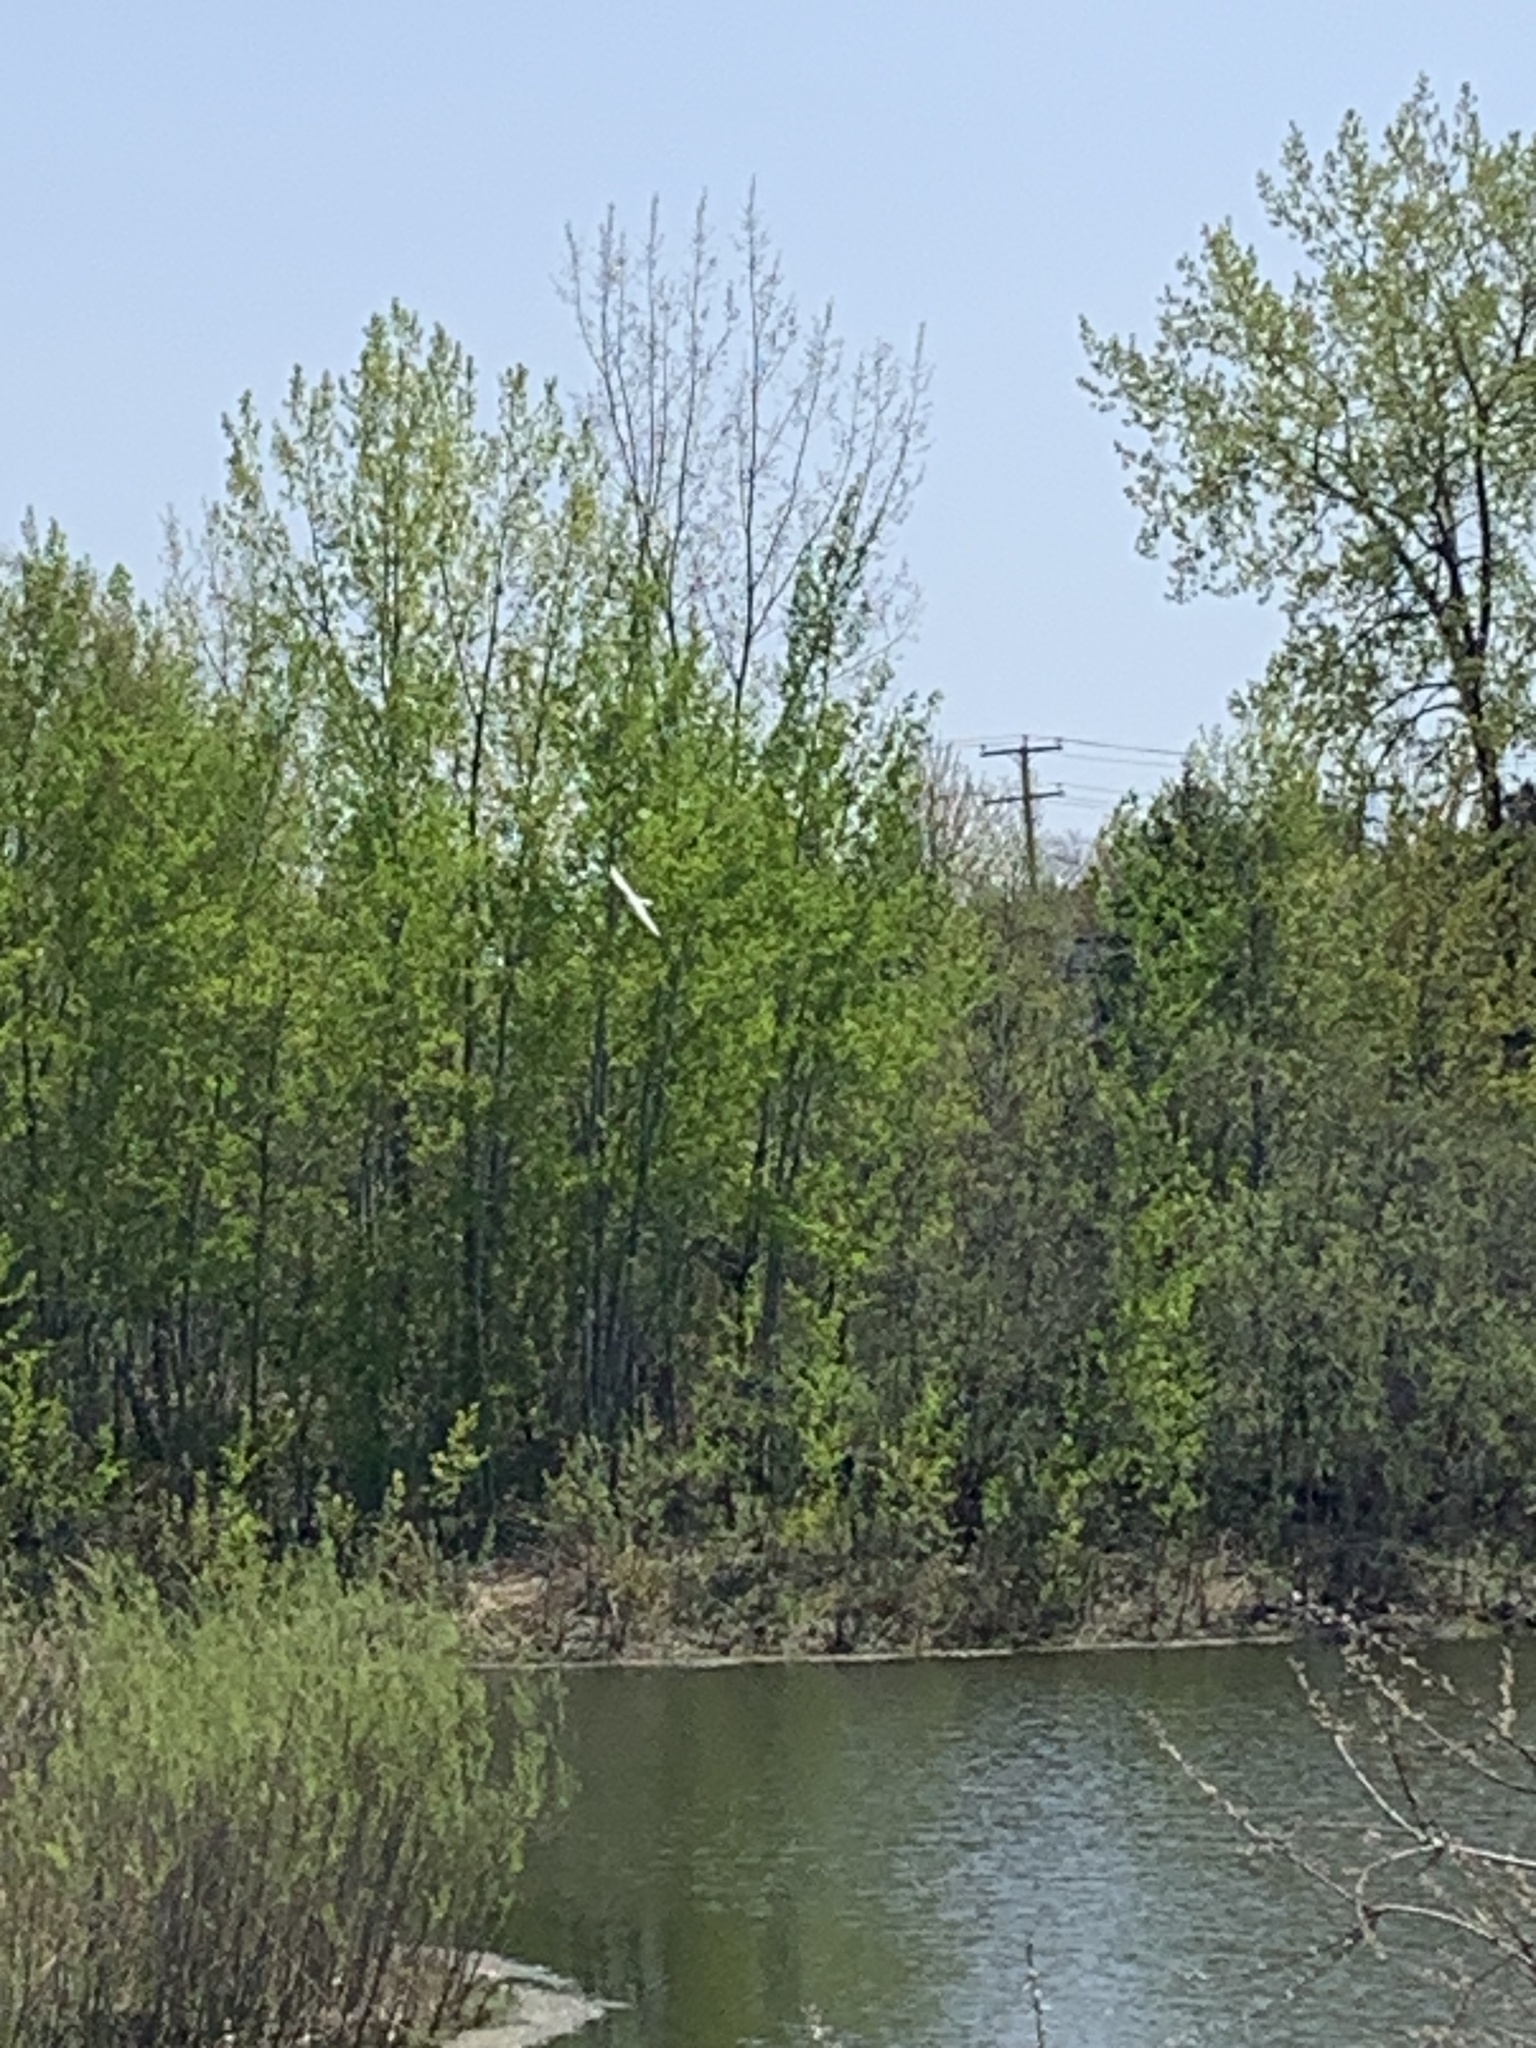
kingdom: Animalia
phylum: Chordata
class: Aves
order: Charadriiformes
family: Laridae
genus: Sterna
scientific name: Sterna hirundo
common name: Common tern
